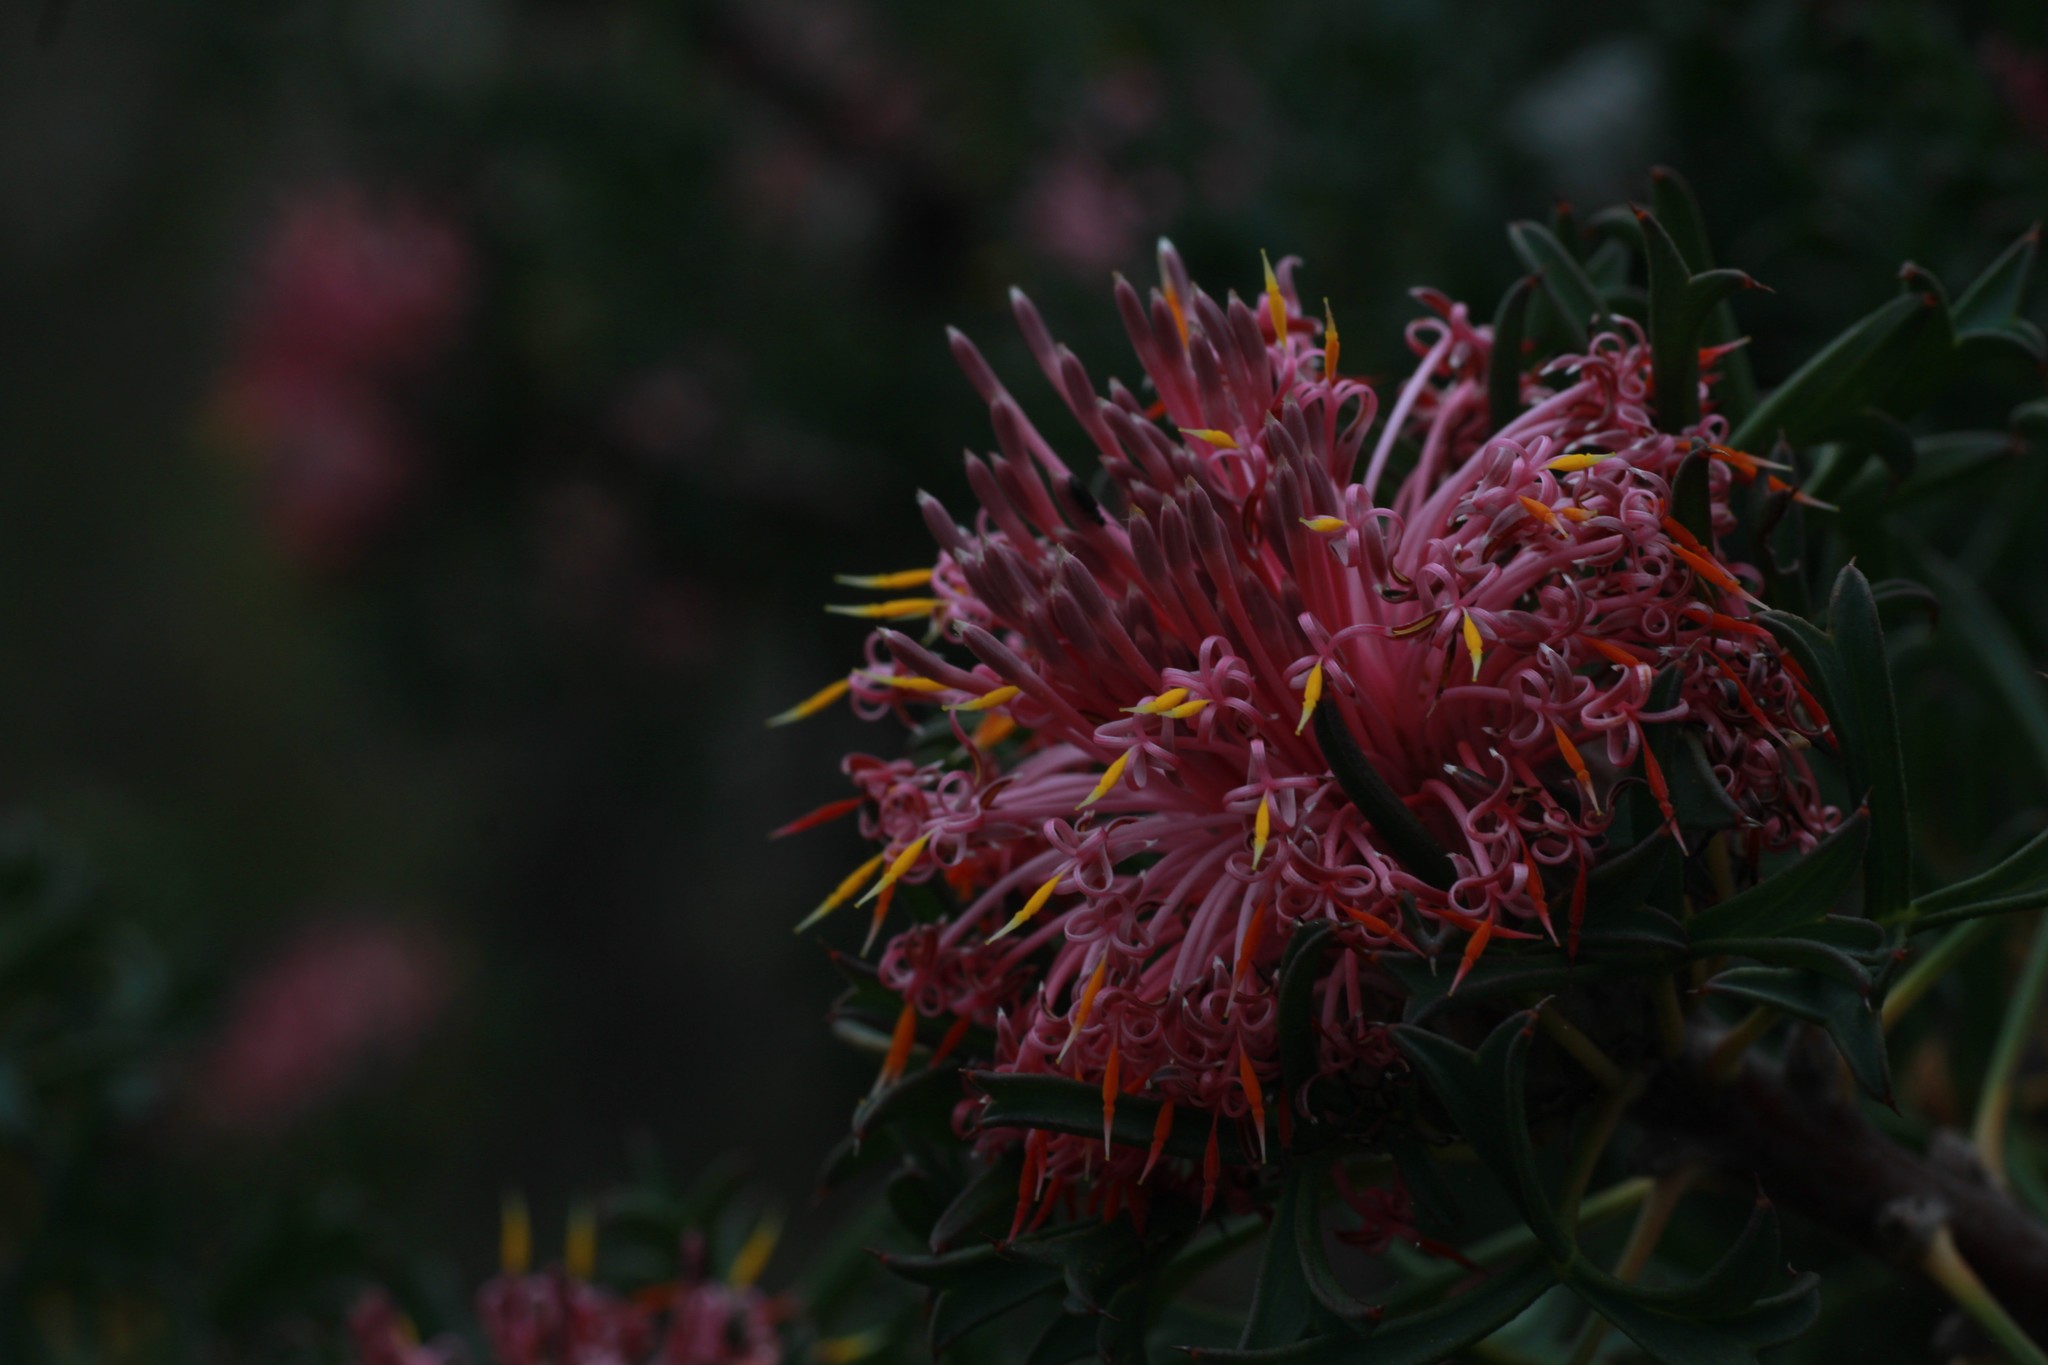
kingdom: Plantae
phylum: Tracheophyta
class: Magnoliopsida
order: Proteales
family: Proteaceae
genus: Isopogon
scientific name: Isopogon dubius
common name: Pincushion-coneflower
